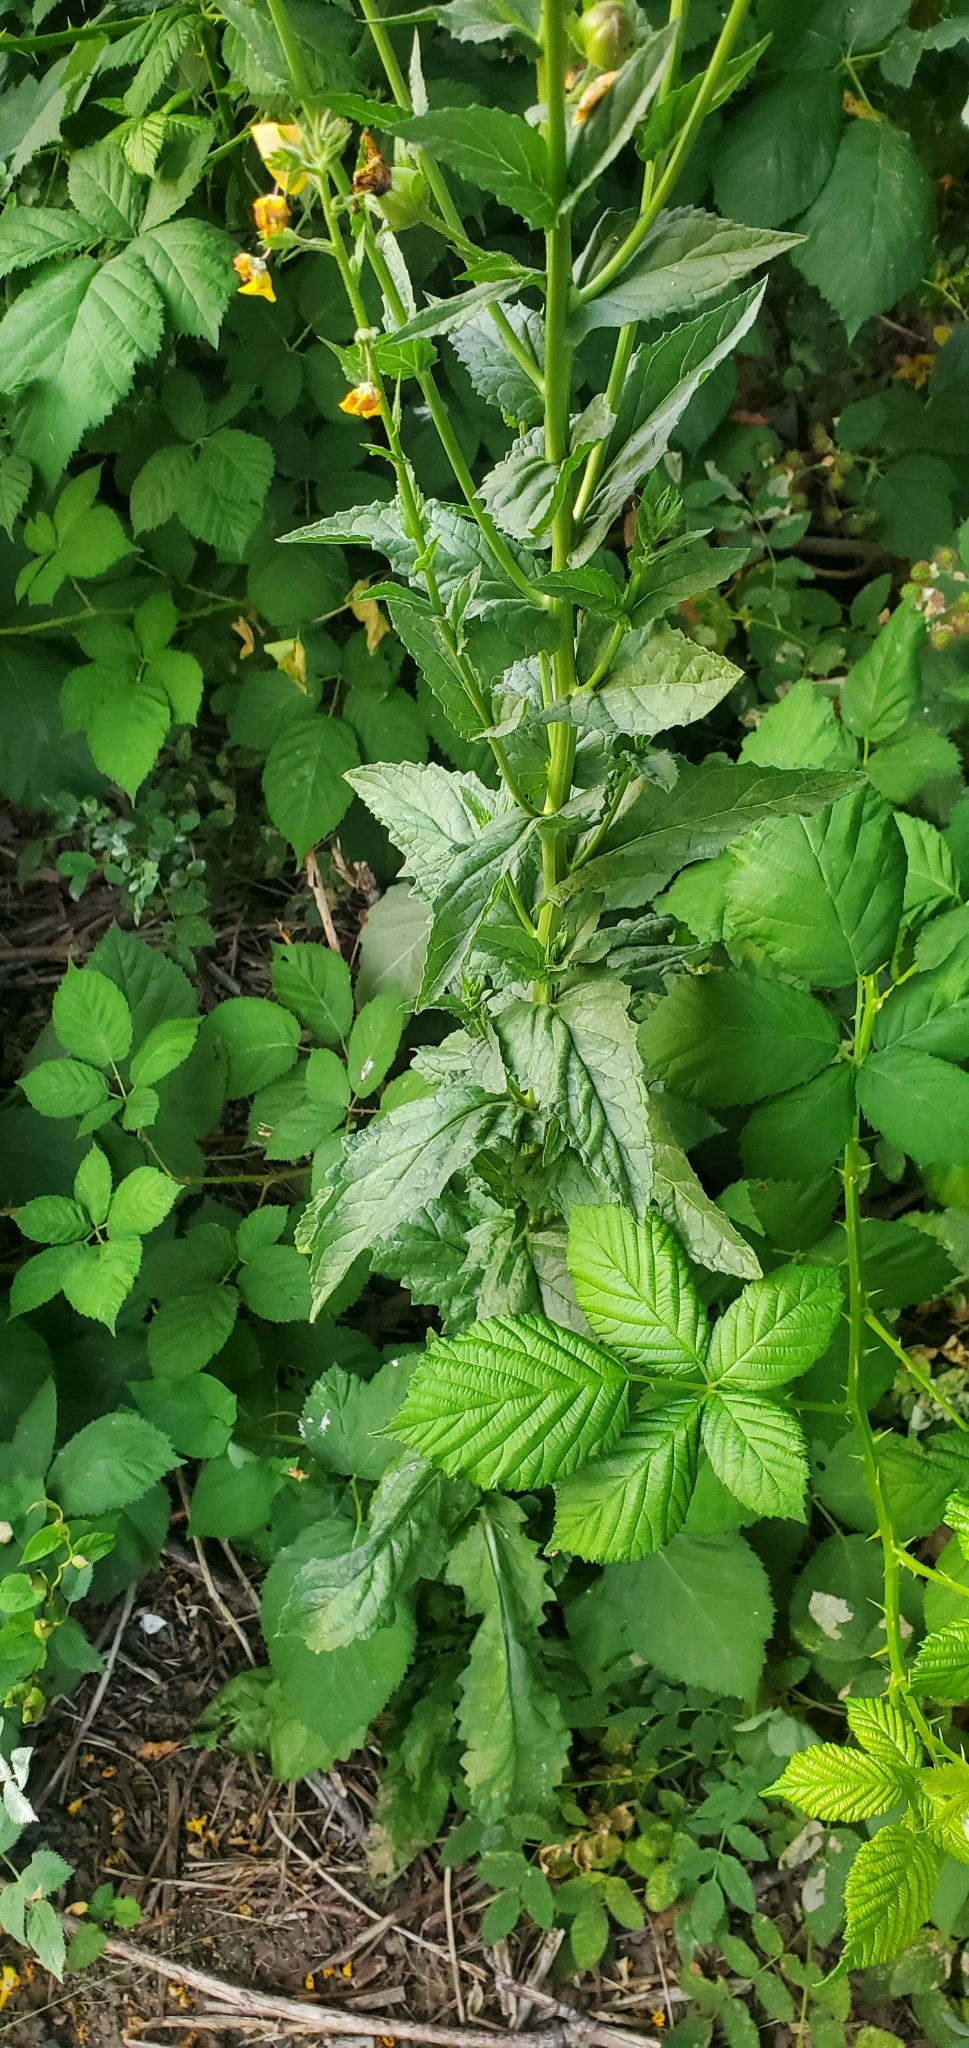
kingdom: Plantae
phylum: Tracheophyta
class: Magnoliopsida
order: Lamiales
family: Scrophulariaceae
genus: Verbascum
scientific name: Verbascum blattaria
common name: Moth mullein
